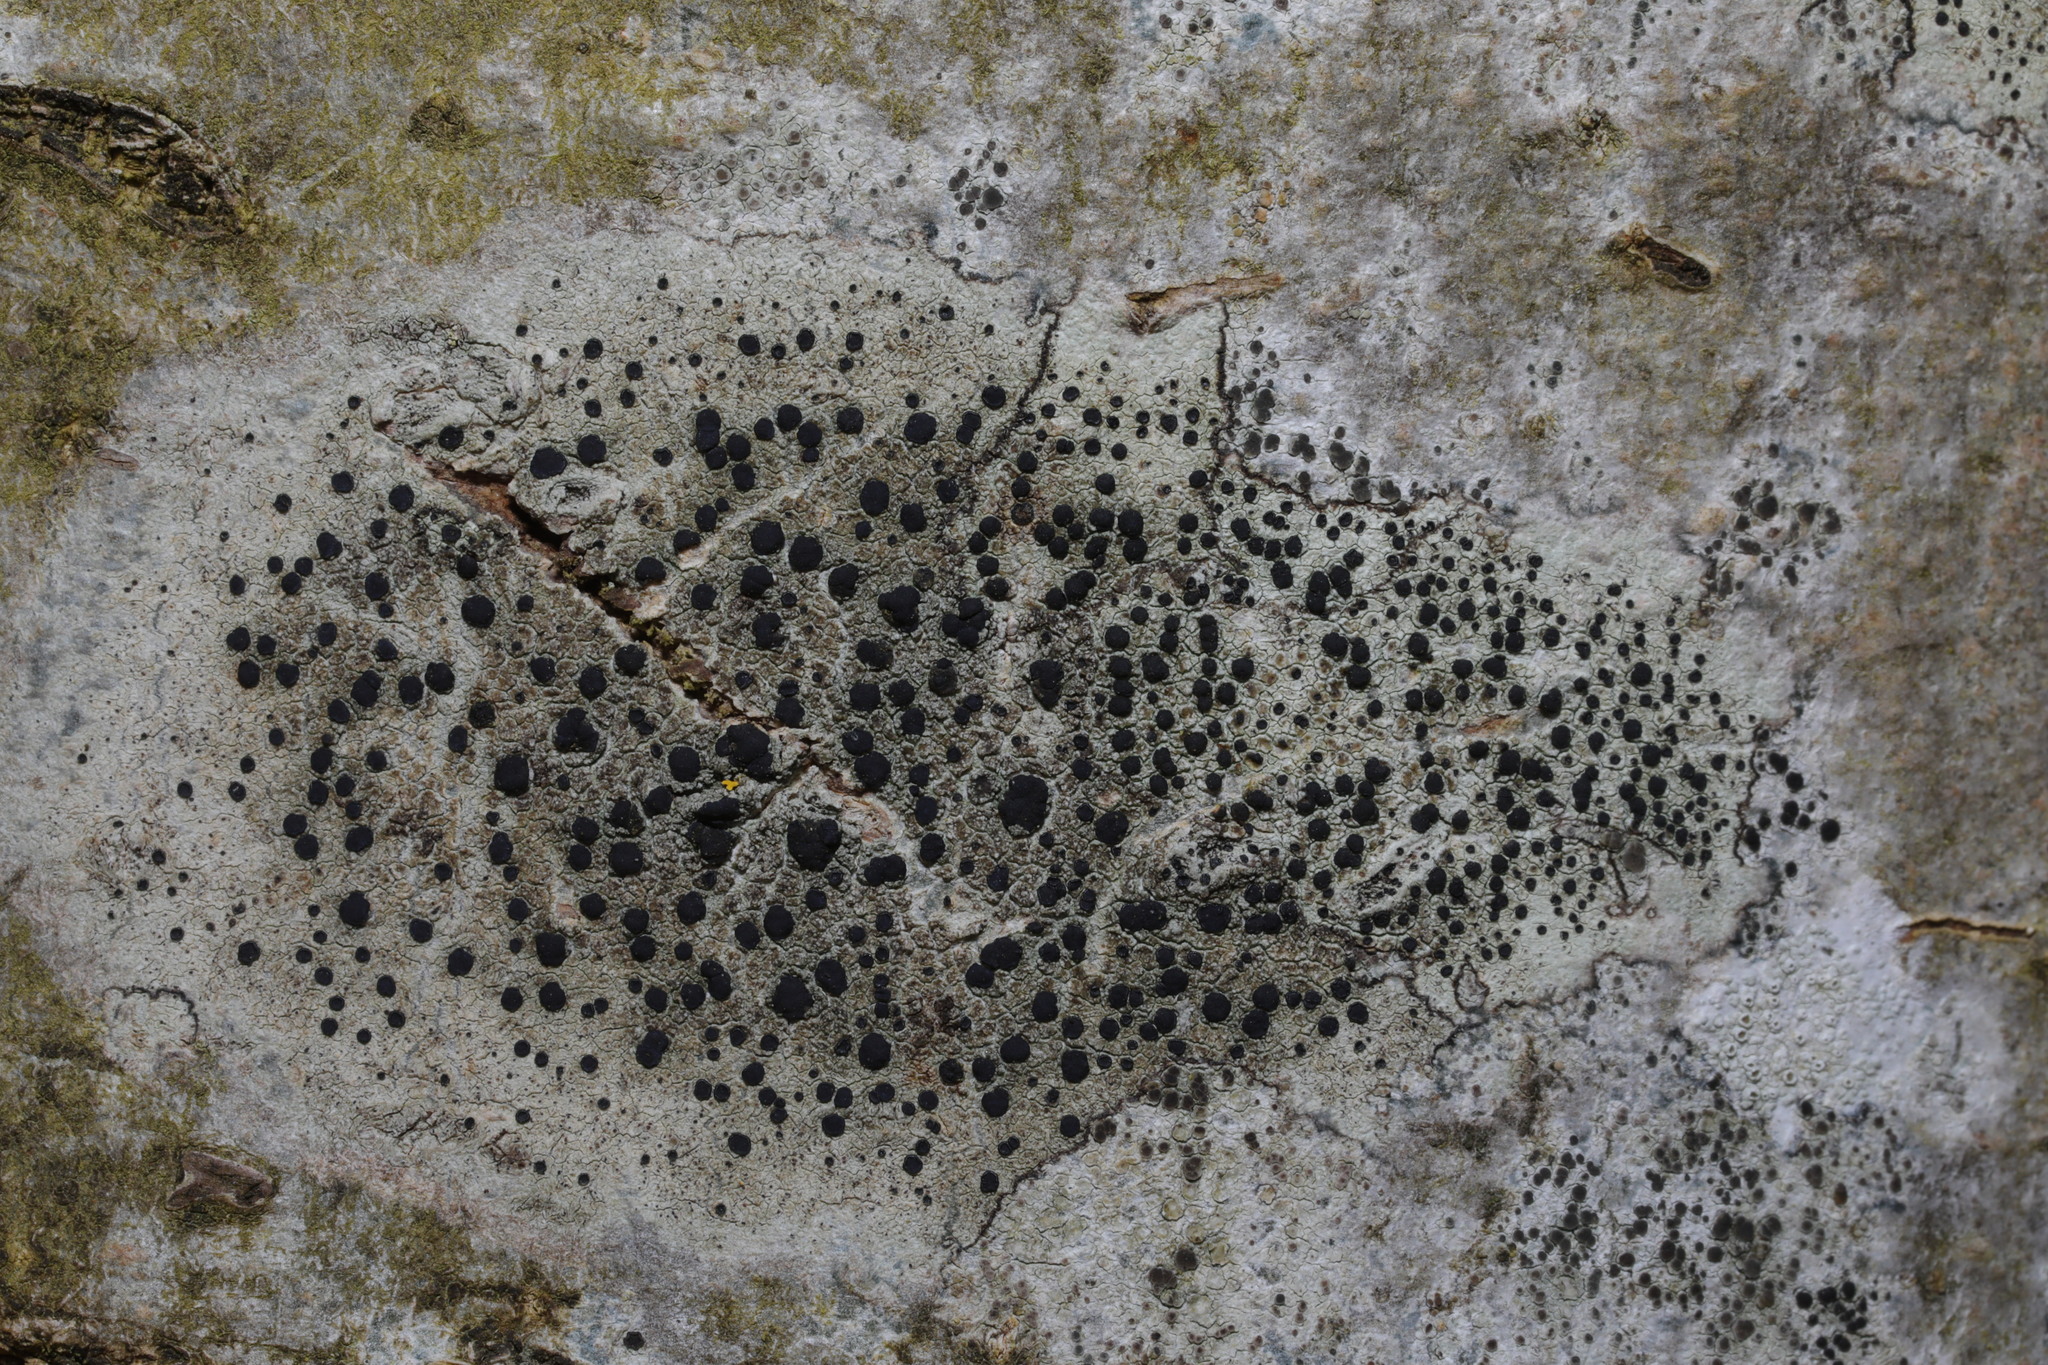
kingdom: Fungi
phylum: Ascomycota
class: Lecanoromycetes
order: Lecanorales
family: Lecanoraceae
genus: Lecidella
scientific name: Lecidella elaeochroma
